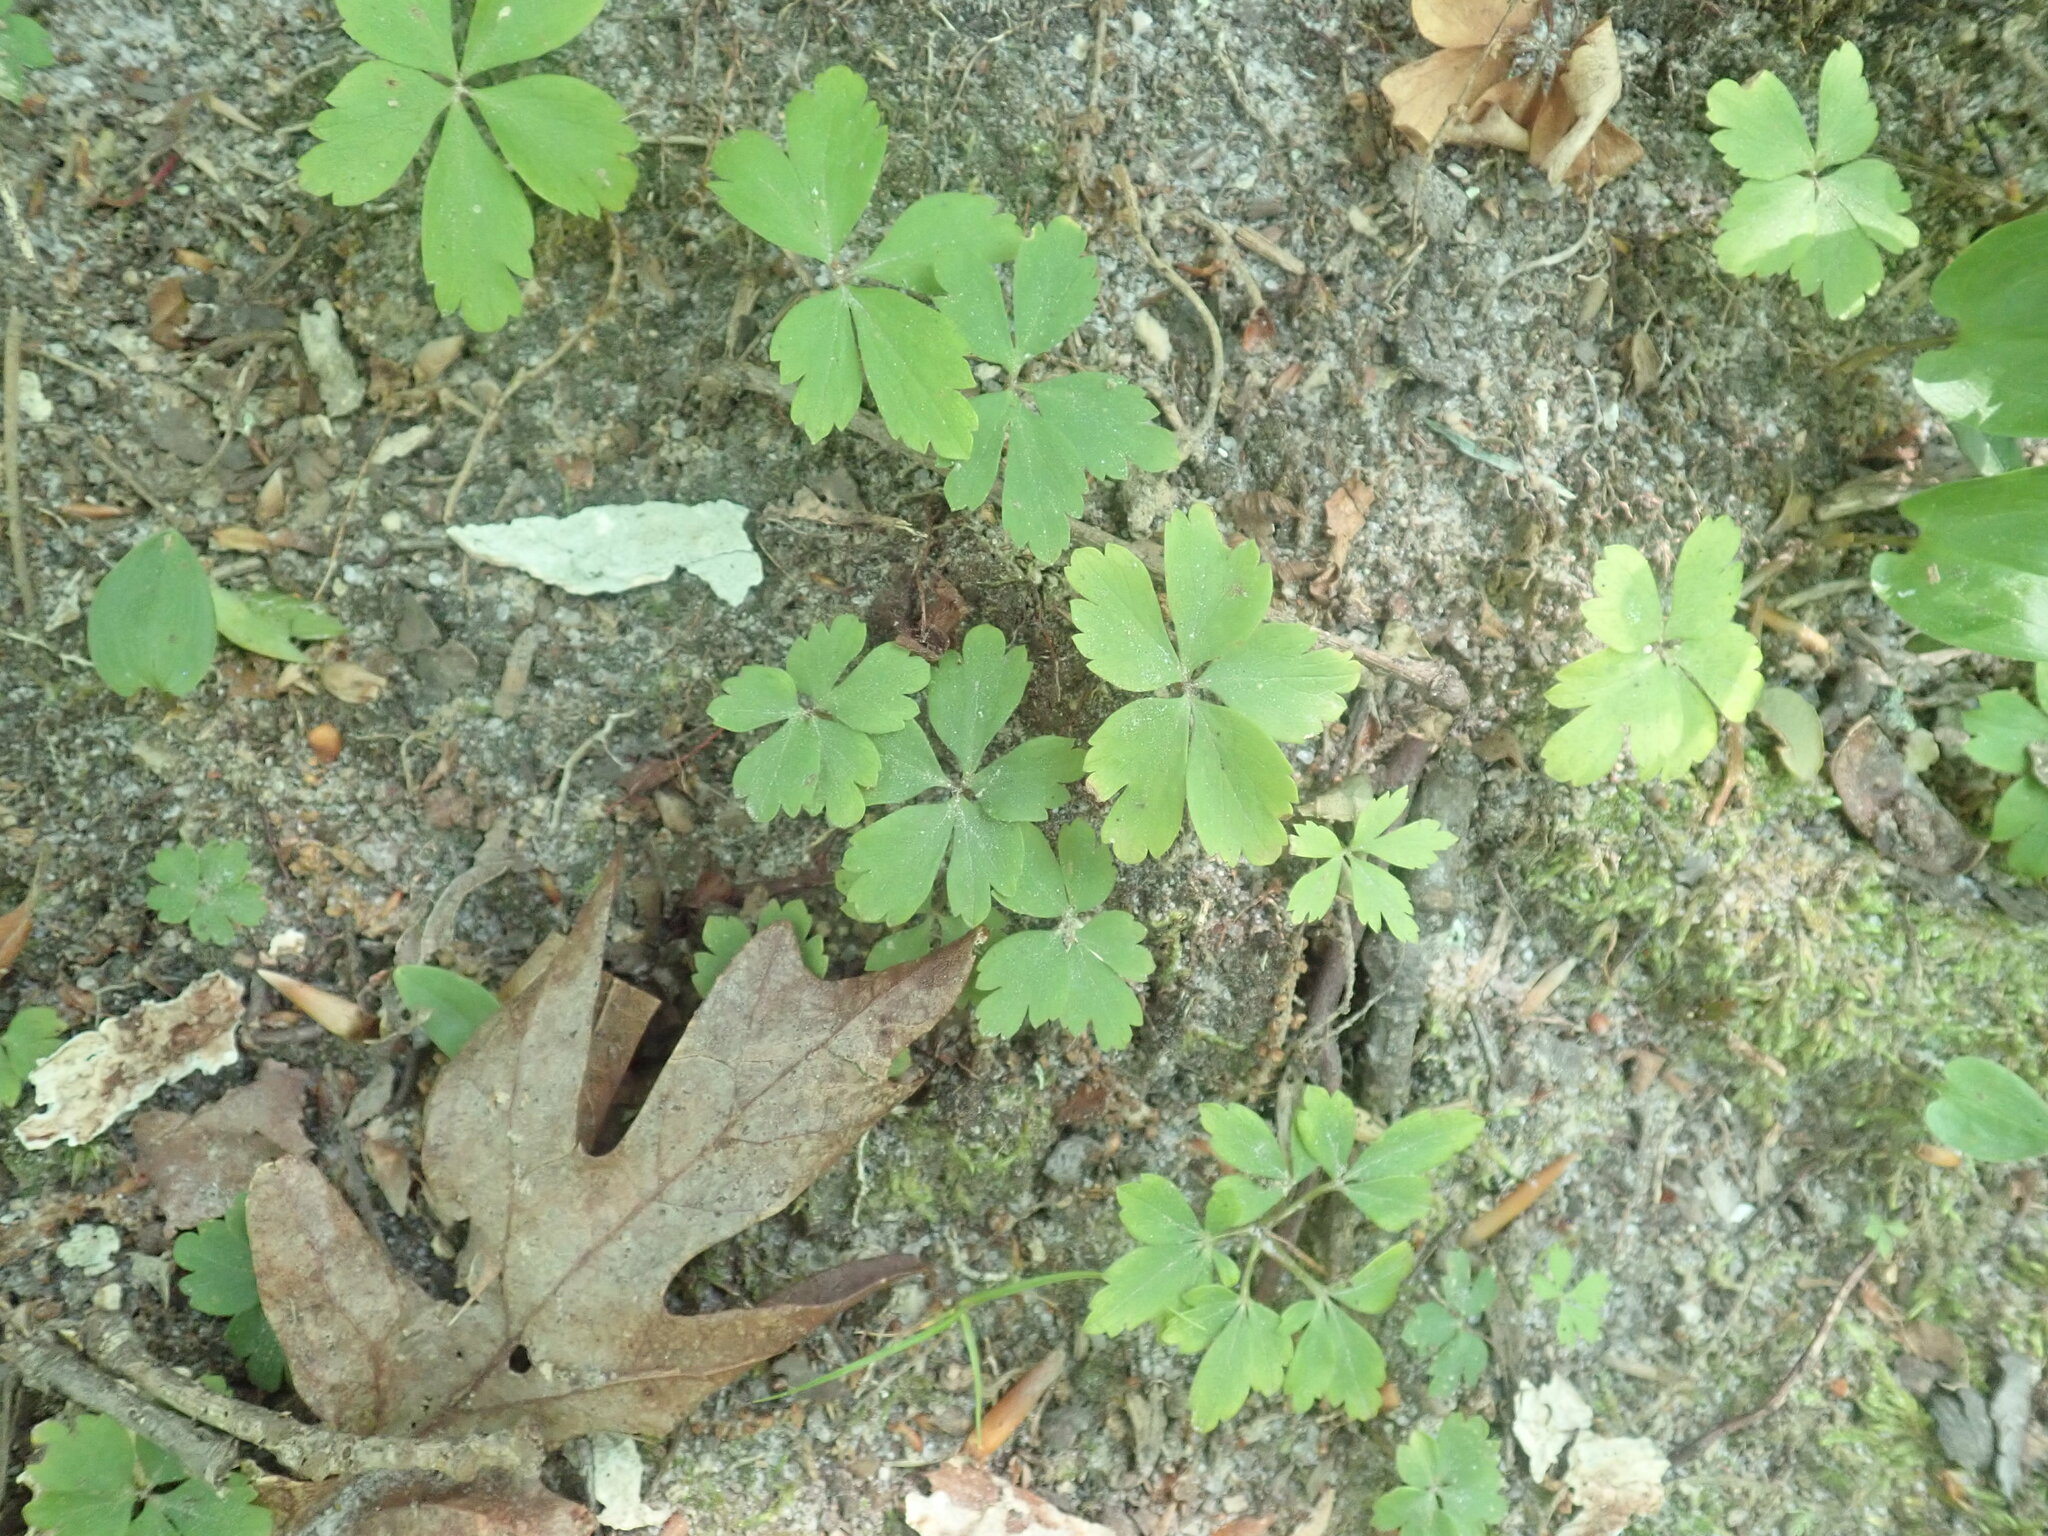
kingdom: Plantae
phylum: Tracheophyta
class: Magnoliopsida
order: Ranunculales
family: Ranunculaceae
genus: Anemone
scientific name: Anemone quinquefolia
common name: Wood anemone
